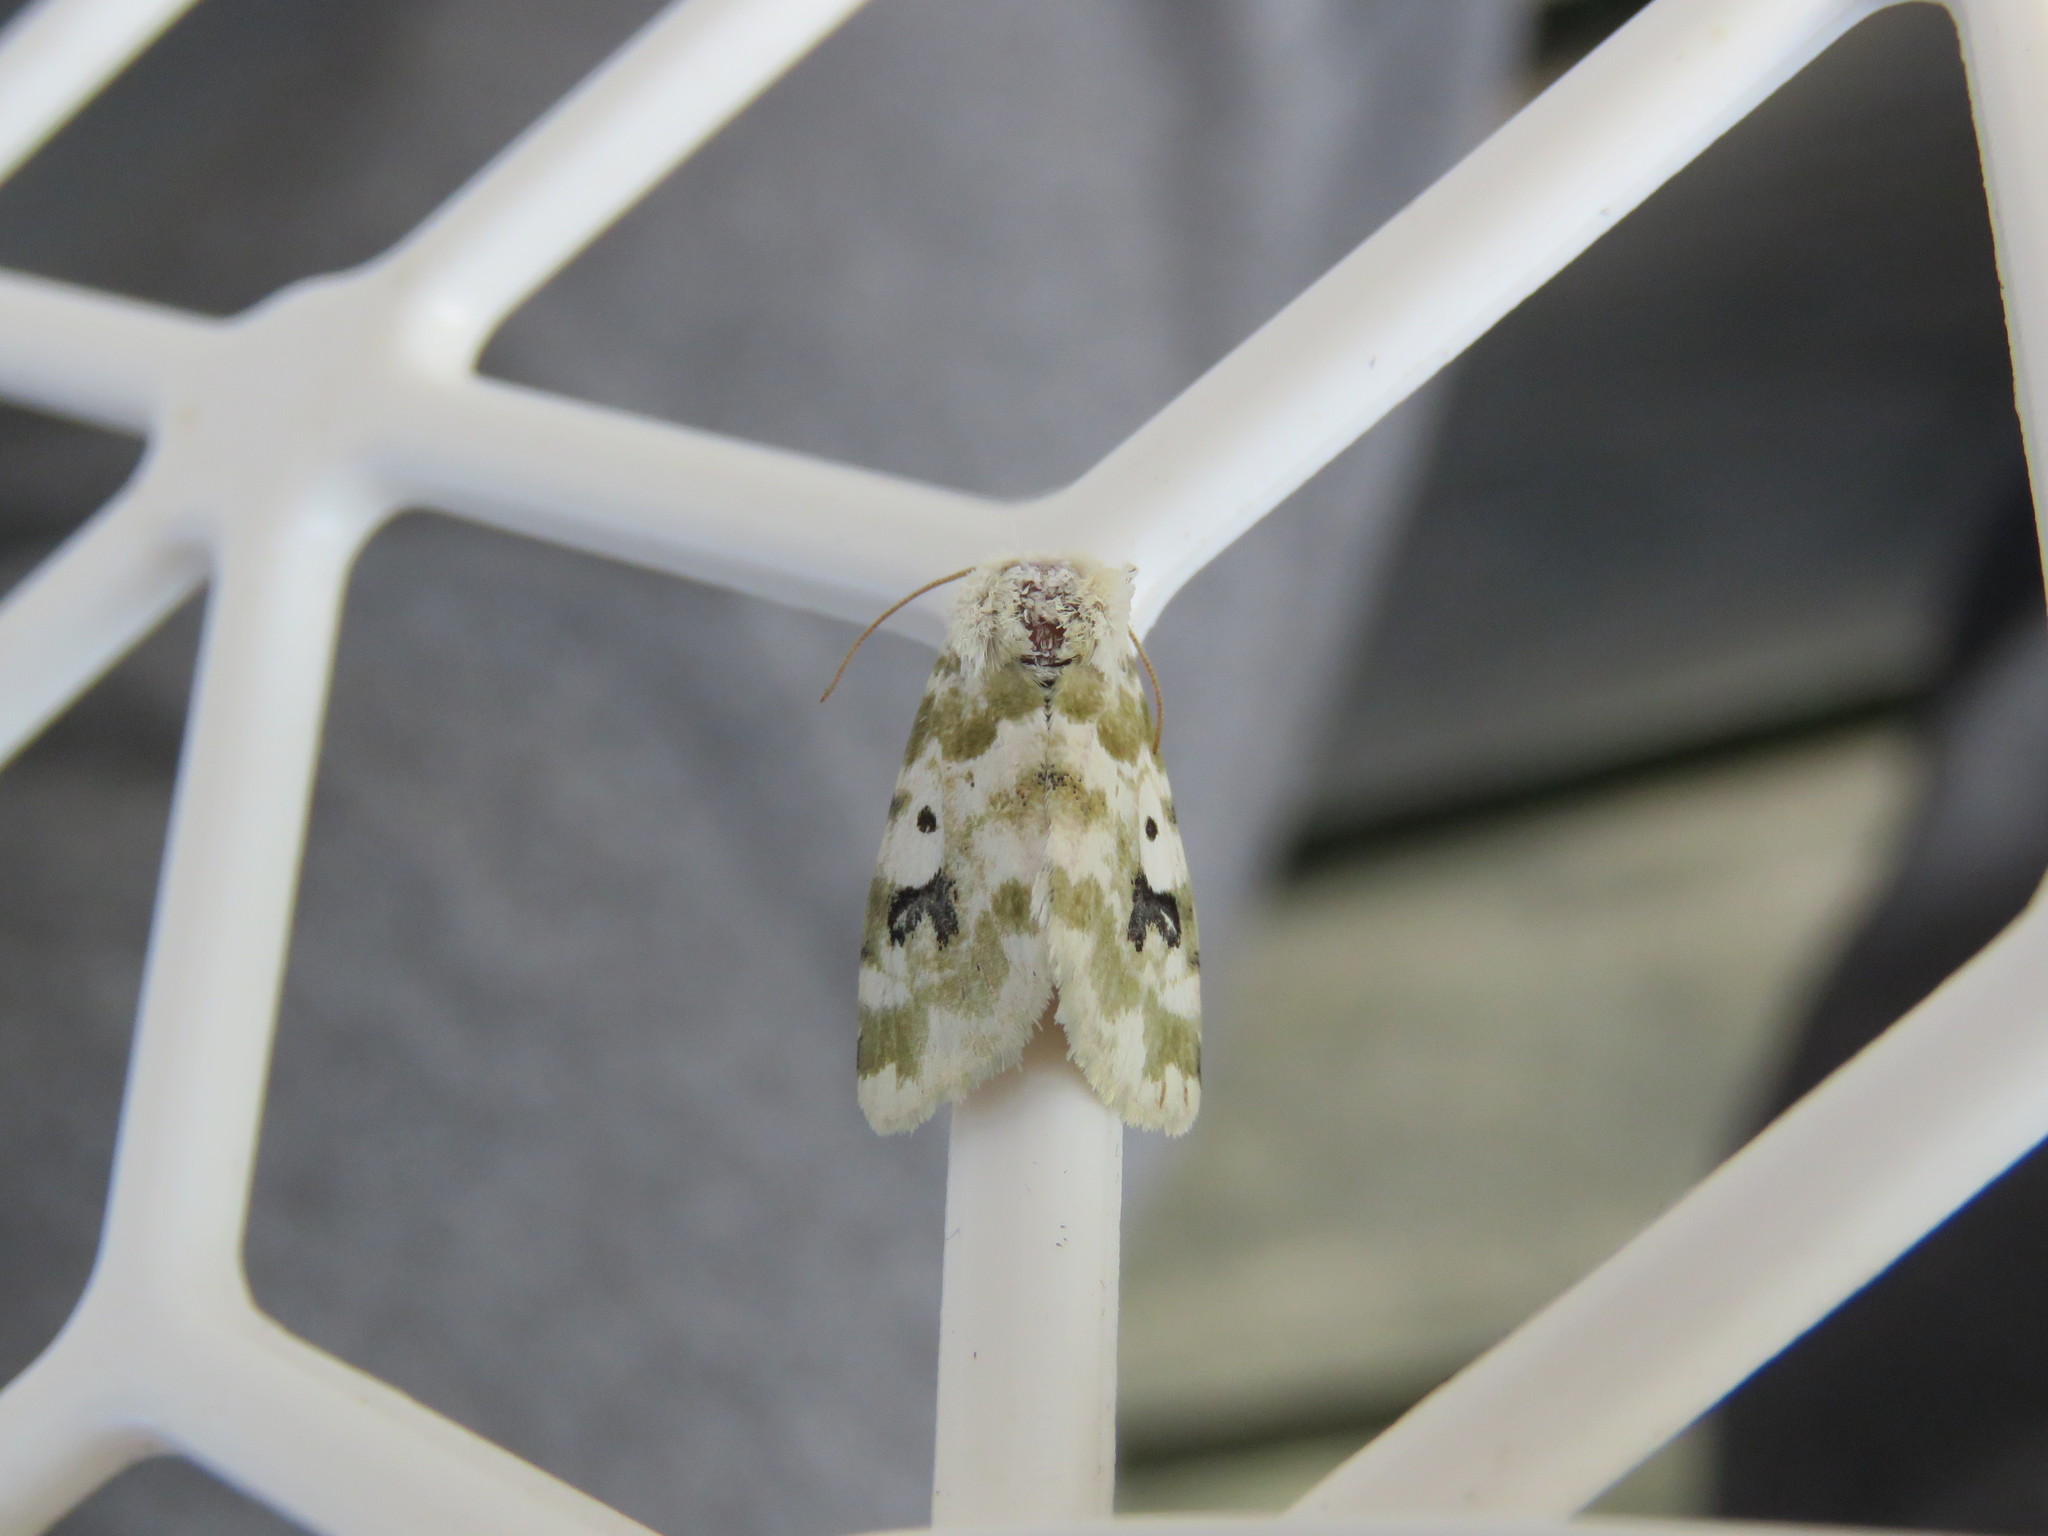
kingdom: Animalia
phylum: Arthropoda
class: Insecta
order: Lepidoptera
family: Noctuidae
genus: Schinia
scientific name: Schinia nundina
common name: Goldenrod flower moth
